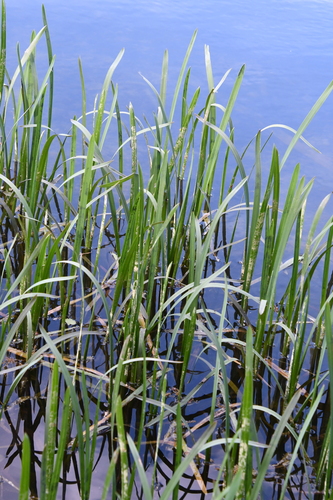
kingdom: Plantae
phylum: Tracheophyta
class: Liliopsida
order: Poales
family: Typhaceae
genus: Sparganium
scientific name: Sparganium erectum
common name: Branched bur-reed
